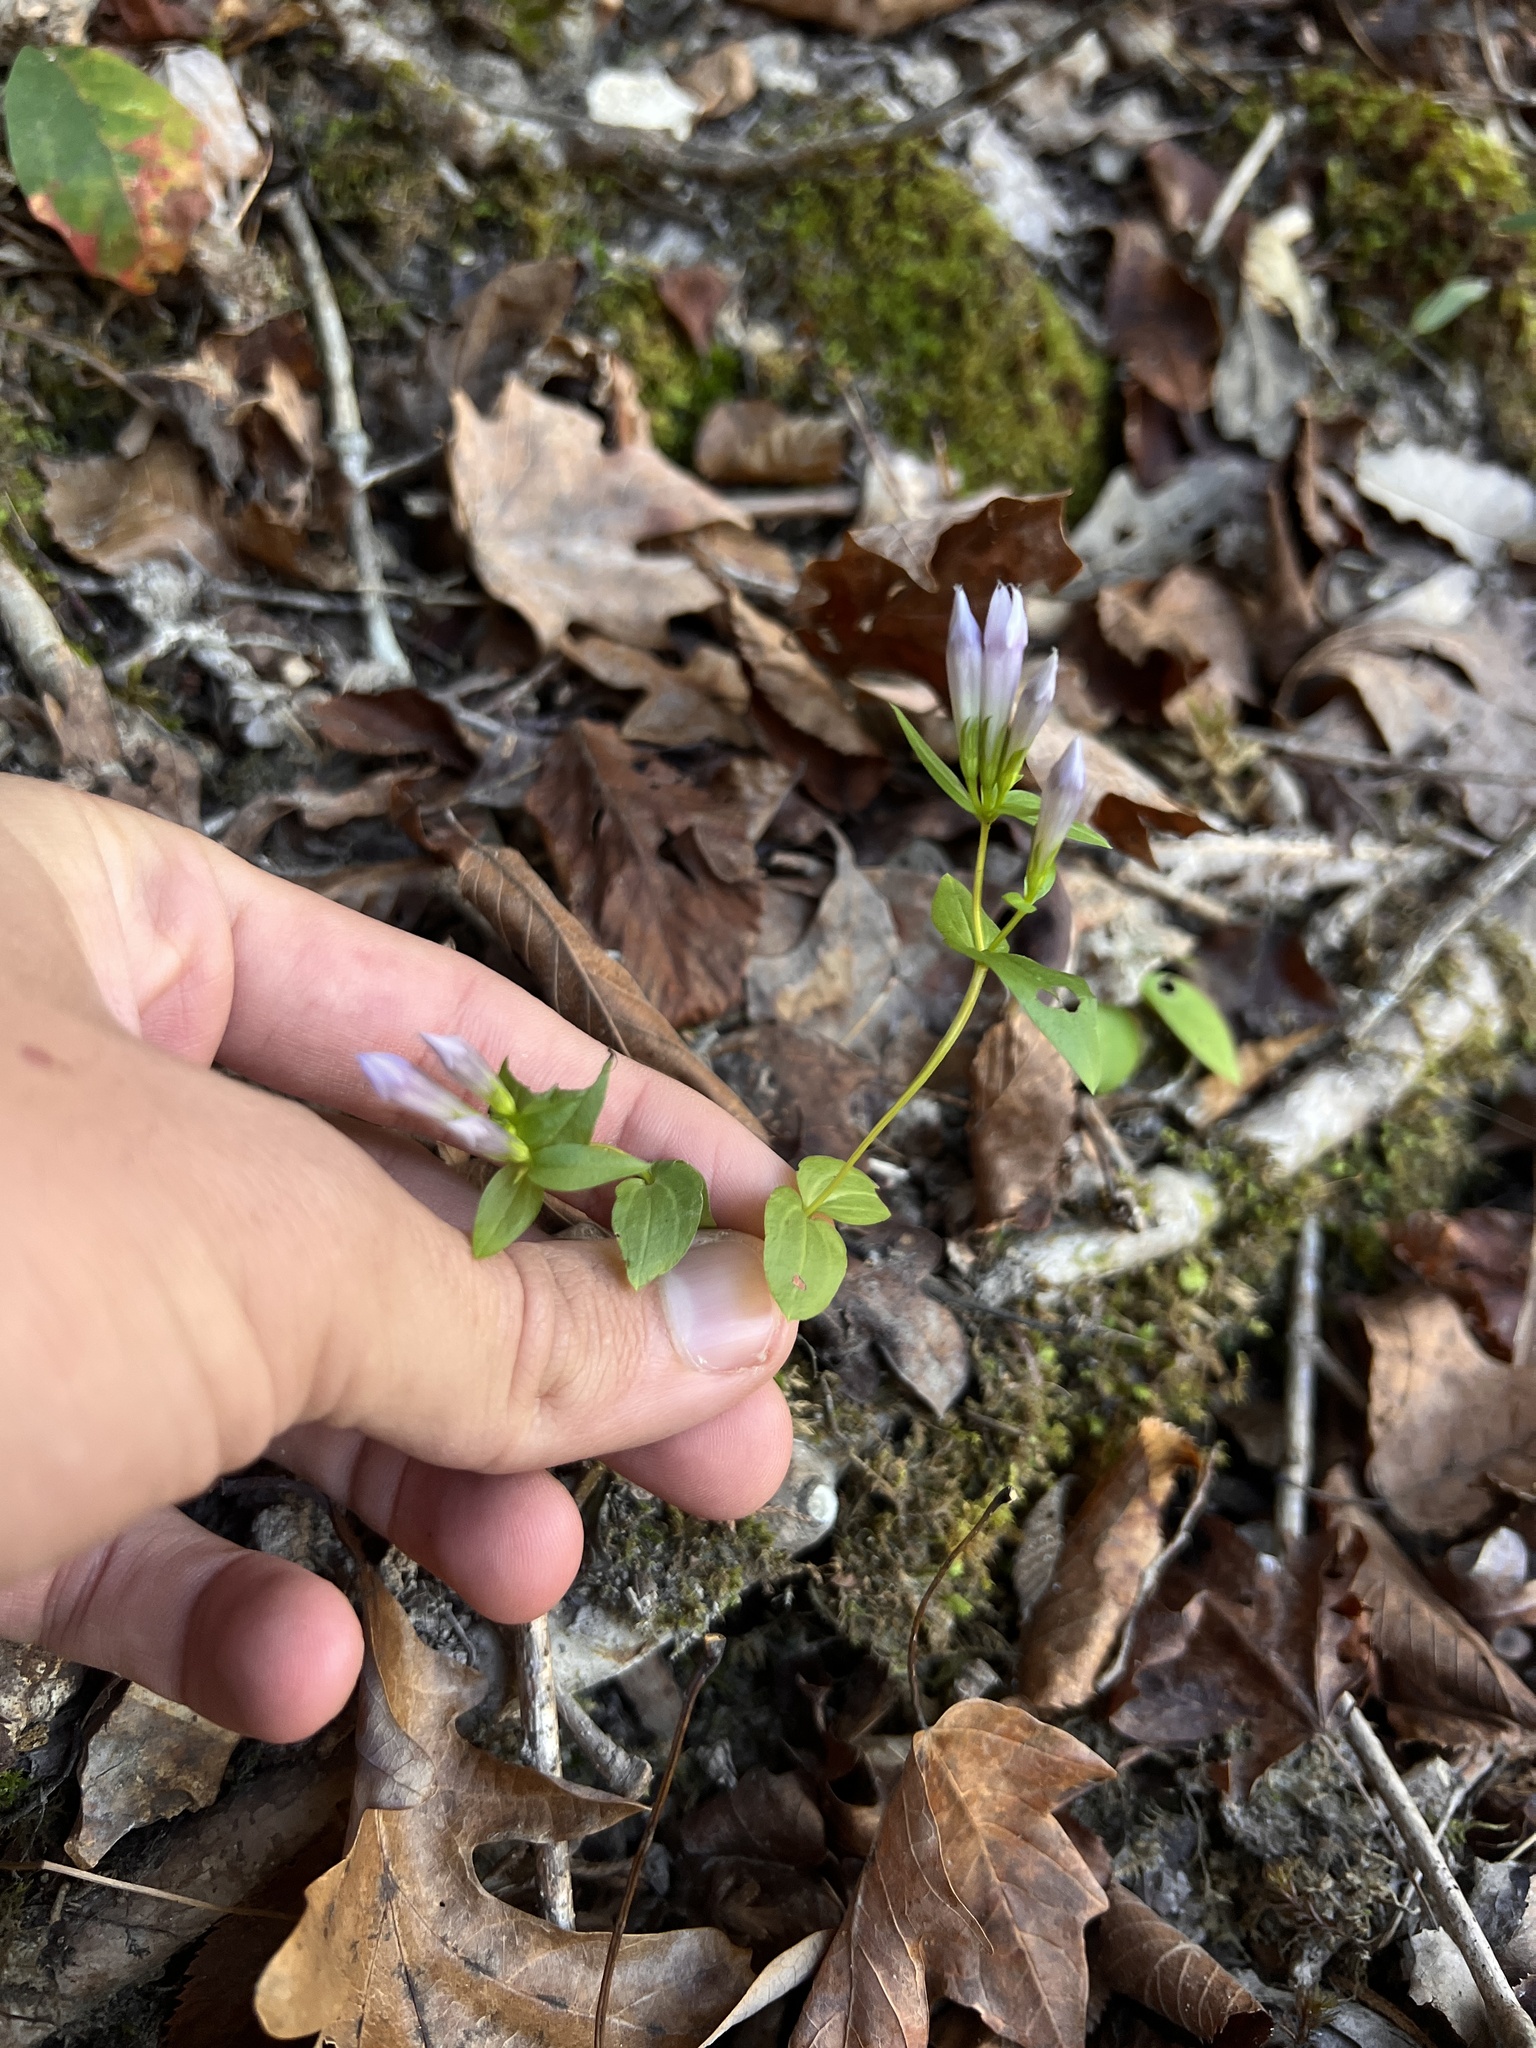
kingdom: Plantae
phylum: Tracheophyta
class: Magnoliopsida
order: Gentianales
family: Gentianaceae
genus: Gentianella
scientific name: Gentianella quinquefolia
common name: Agueweed
